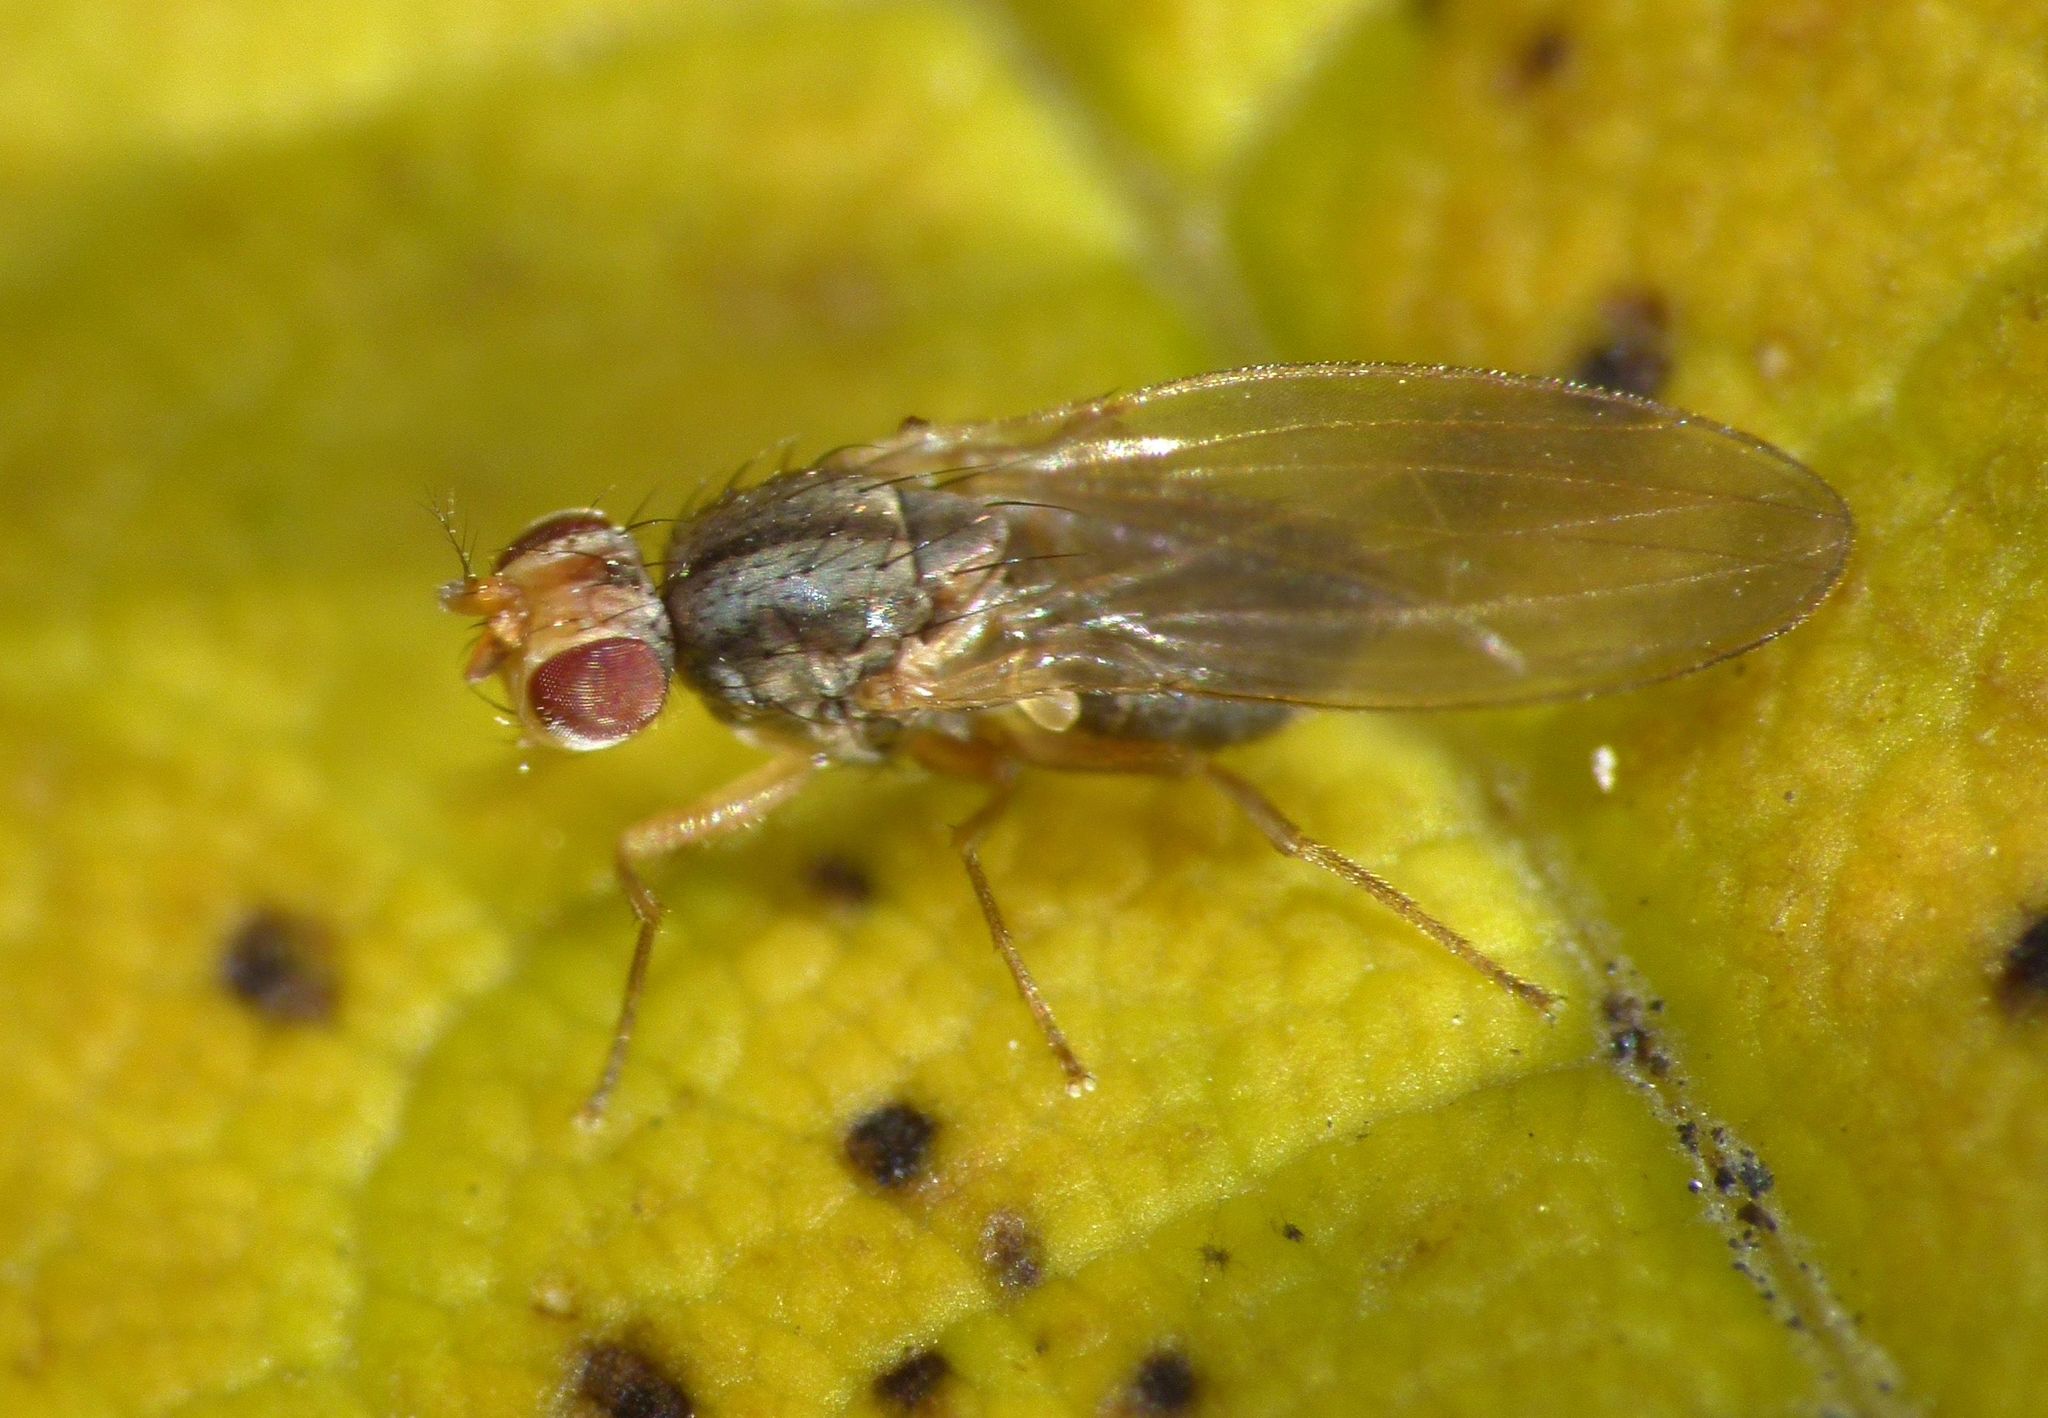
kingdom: Animalia
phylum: Arthropoda
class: Insecta
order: Diptera
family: Drosophilidae
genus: Scaptomyza
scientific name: Scaptomyza flava
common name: Fruit fly
